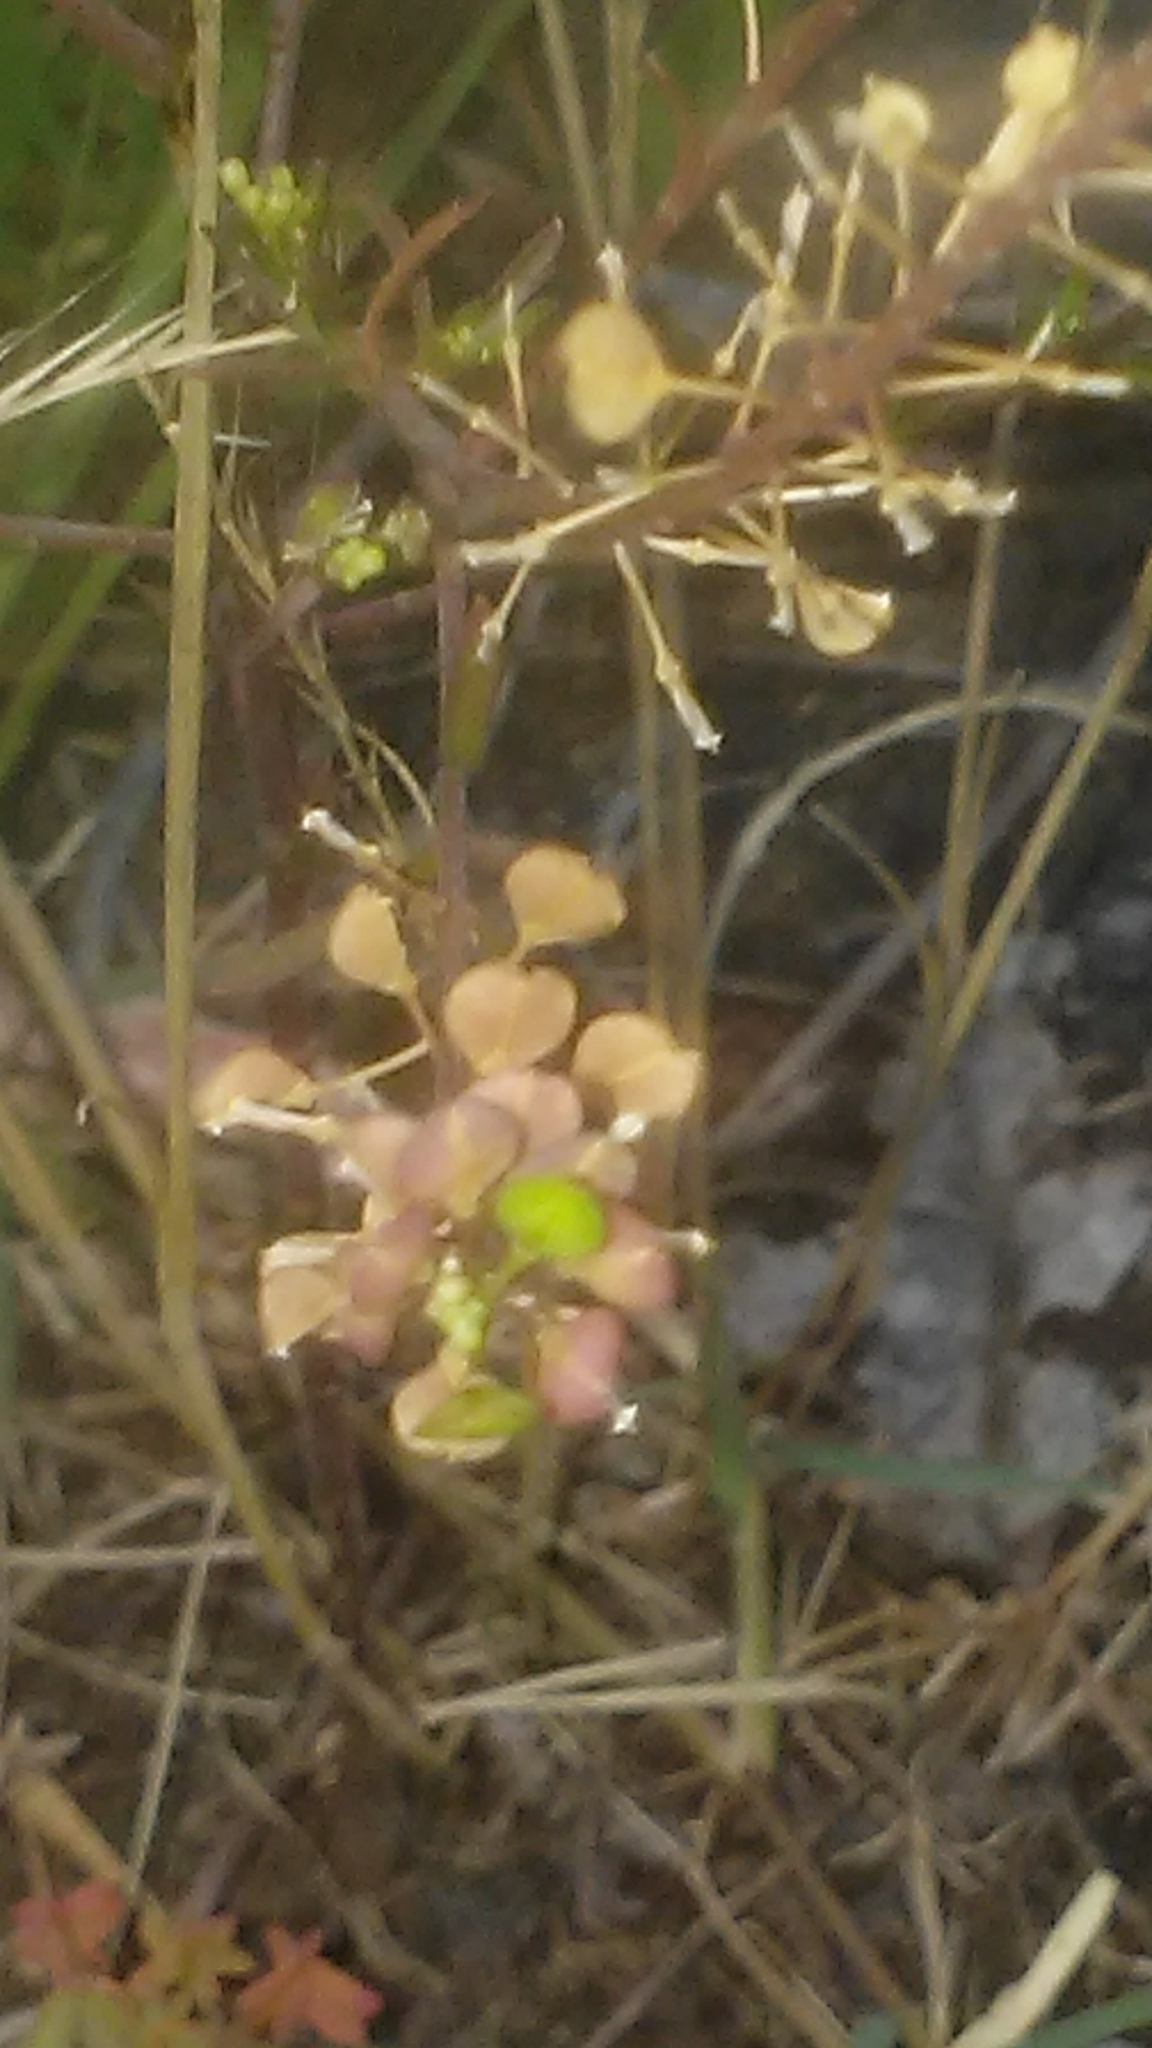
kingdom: Plantae
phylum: Tracheophyta
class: Magnoliopsida
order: Brassicales
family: Brassicaceae
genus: Lepidium
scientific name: Lepidium virginicum
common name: Least pepperwort
